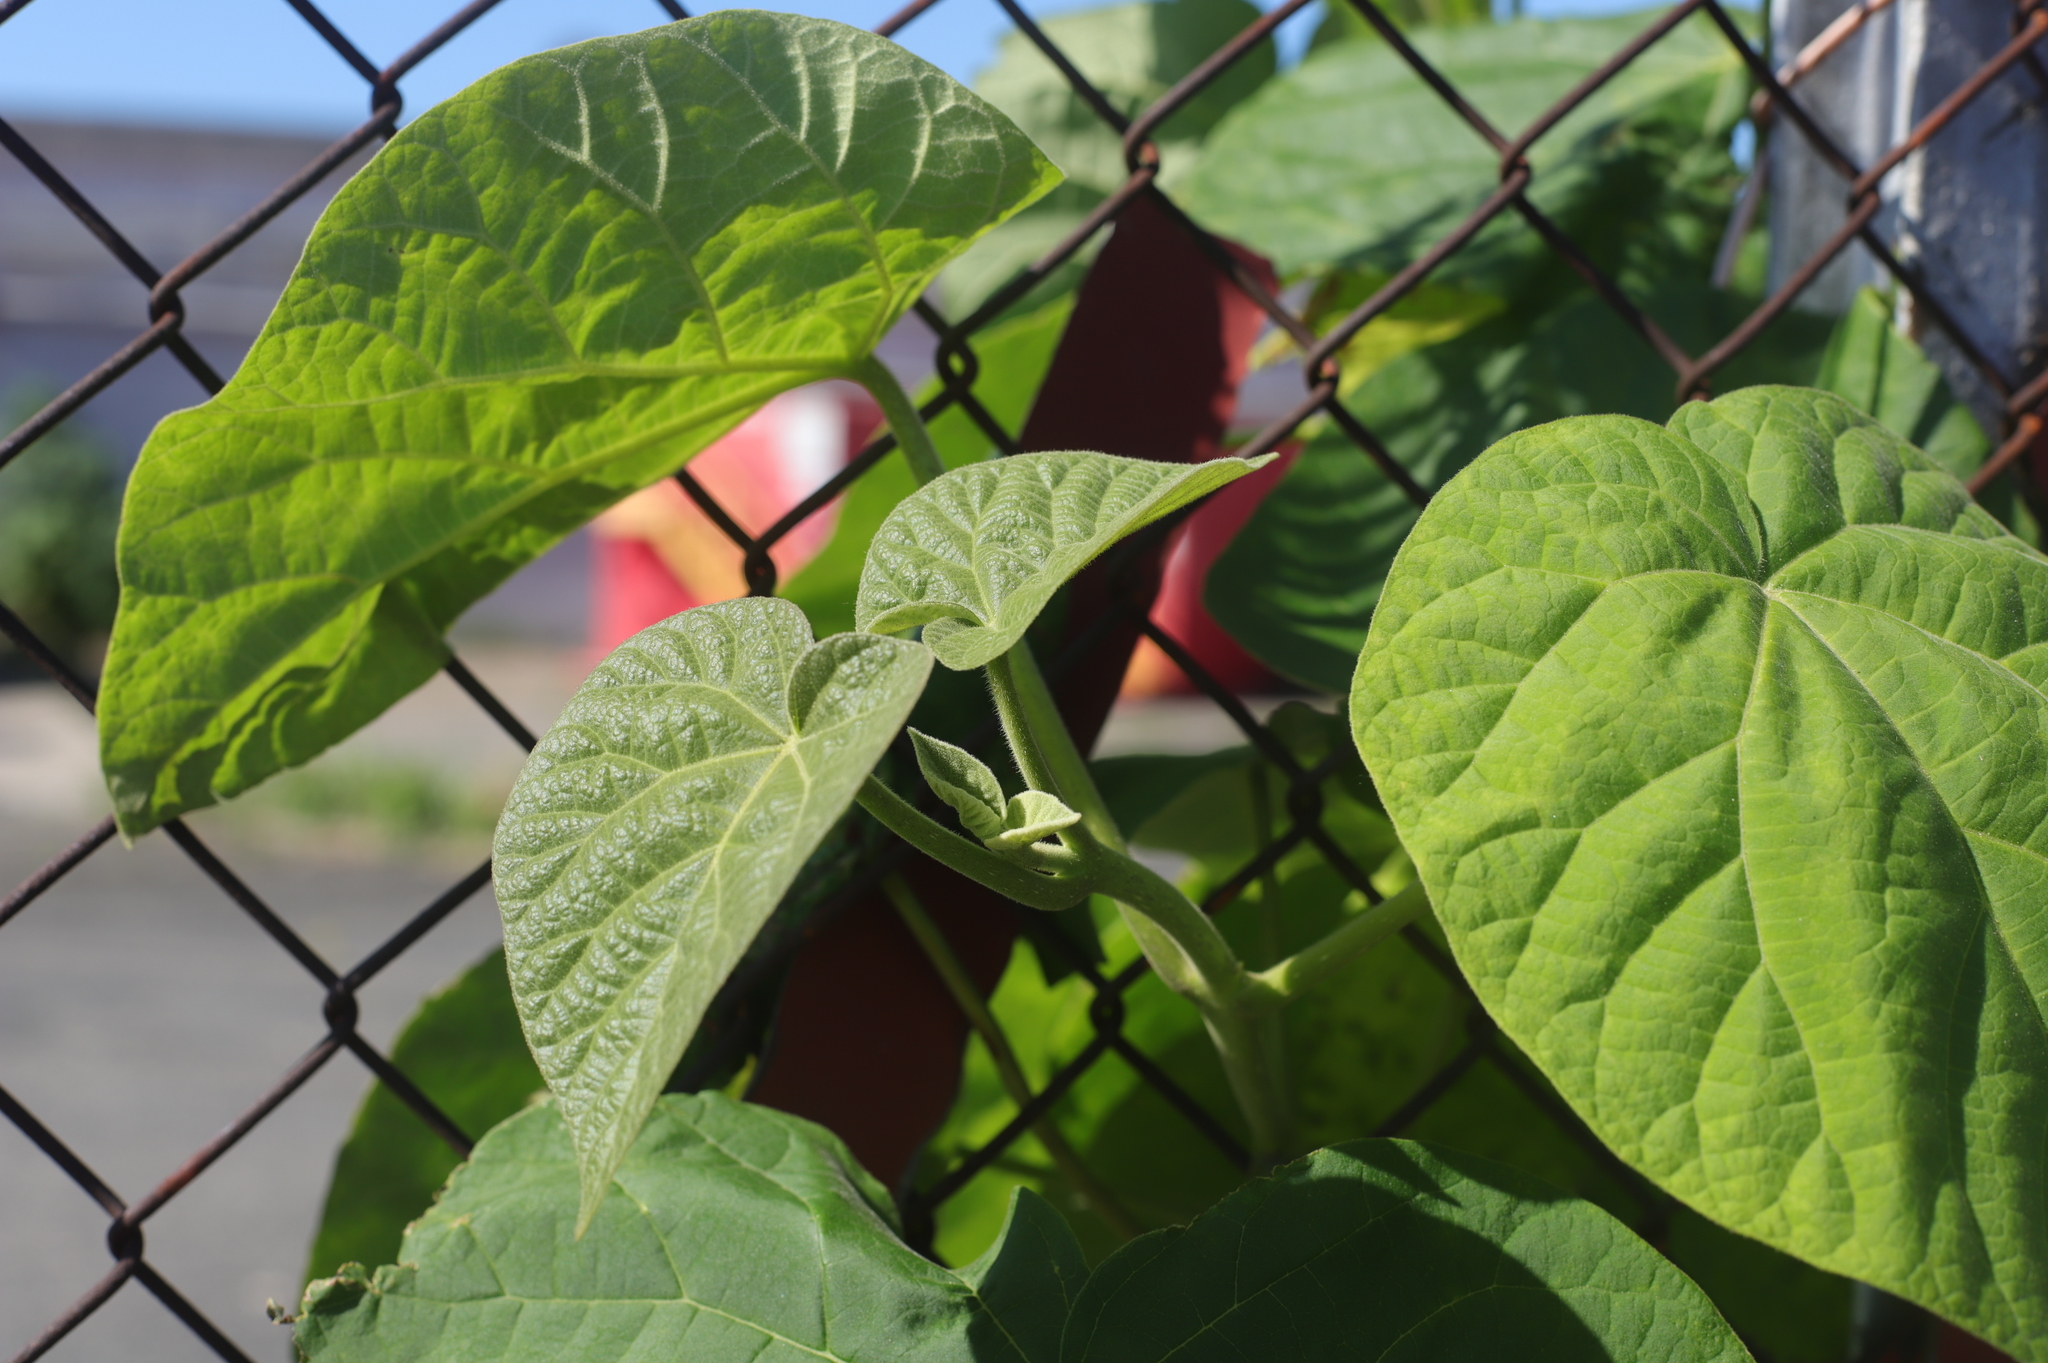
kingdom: Plantae
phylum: Tracheophyta
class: Magnoliopsida
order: Lamiales
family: Paulowniaceae
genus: Paulownia
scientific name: Paulownia tomentosa
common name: Foxglove-tree
